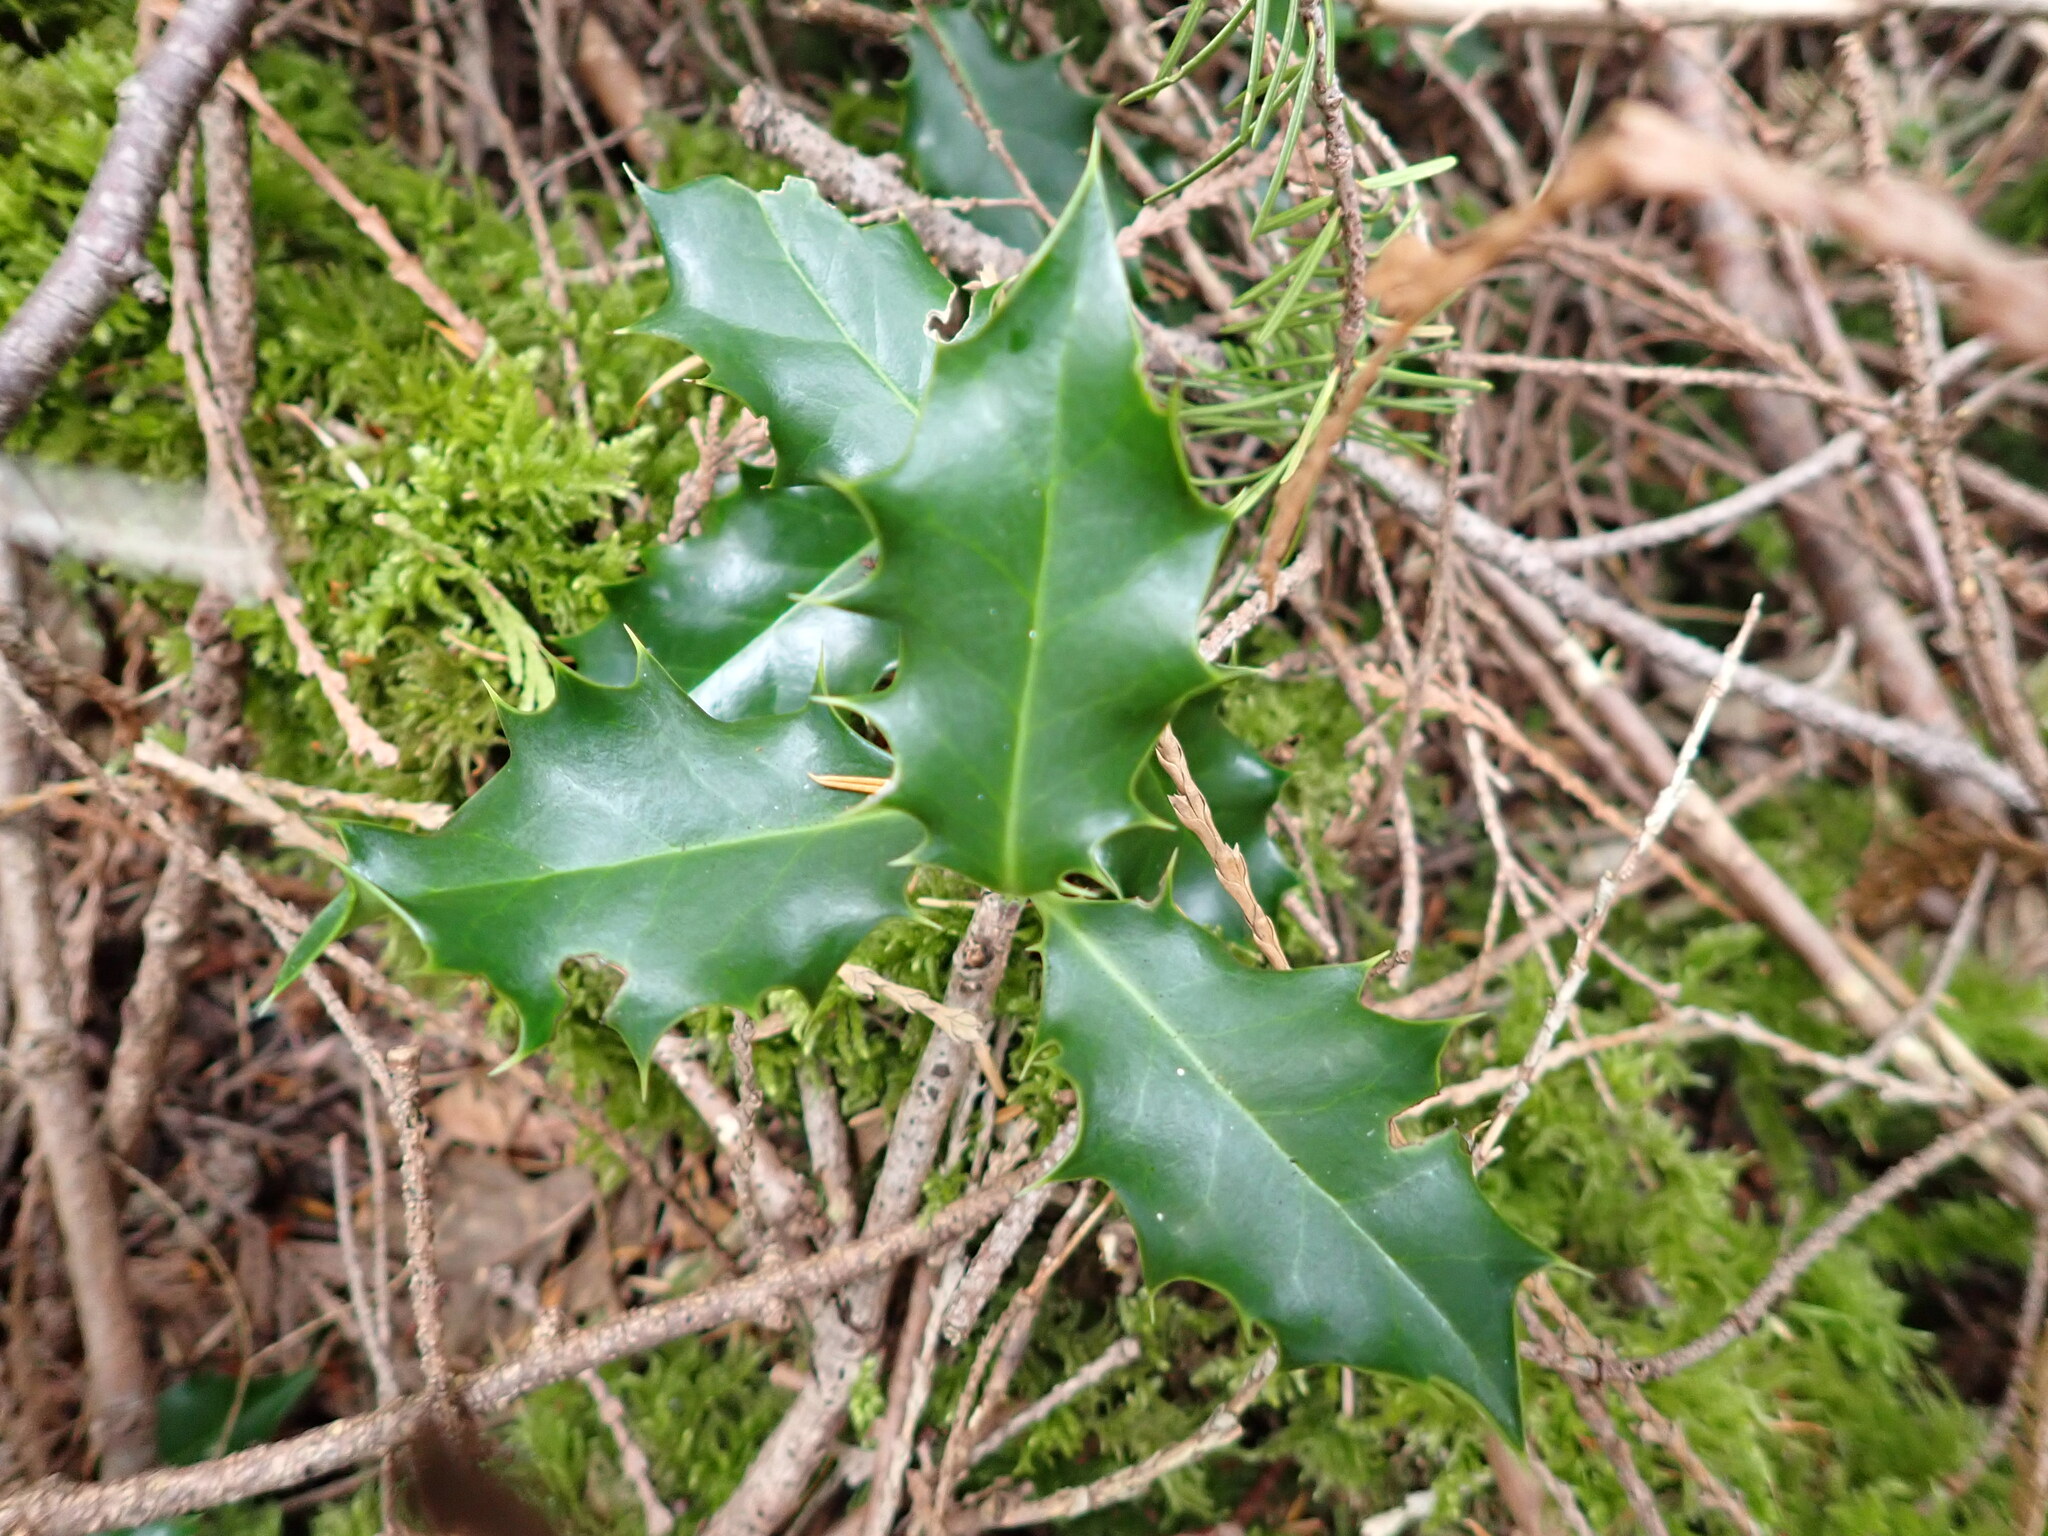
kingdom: Plantae
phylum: Tracheophyta
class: Magnoliopsida
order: Aquifoliales
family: Aquifoliaceae
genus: Ilex
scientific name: Ilex aquifolium
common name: English holly
